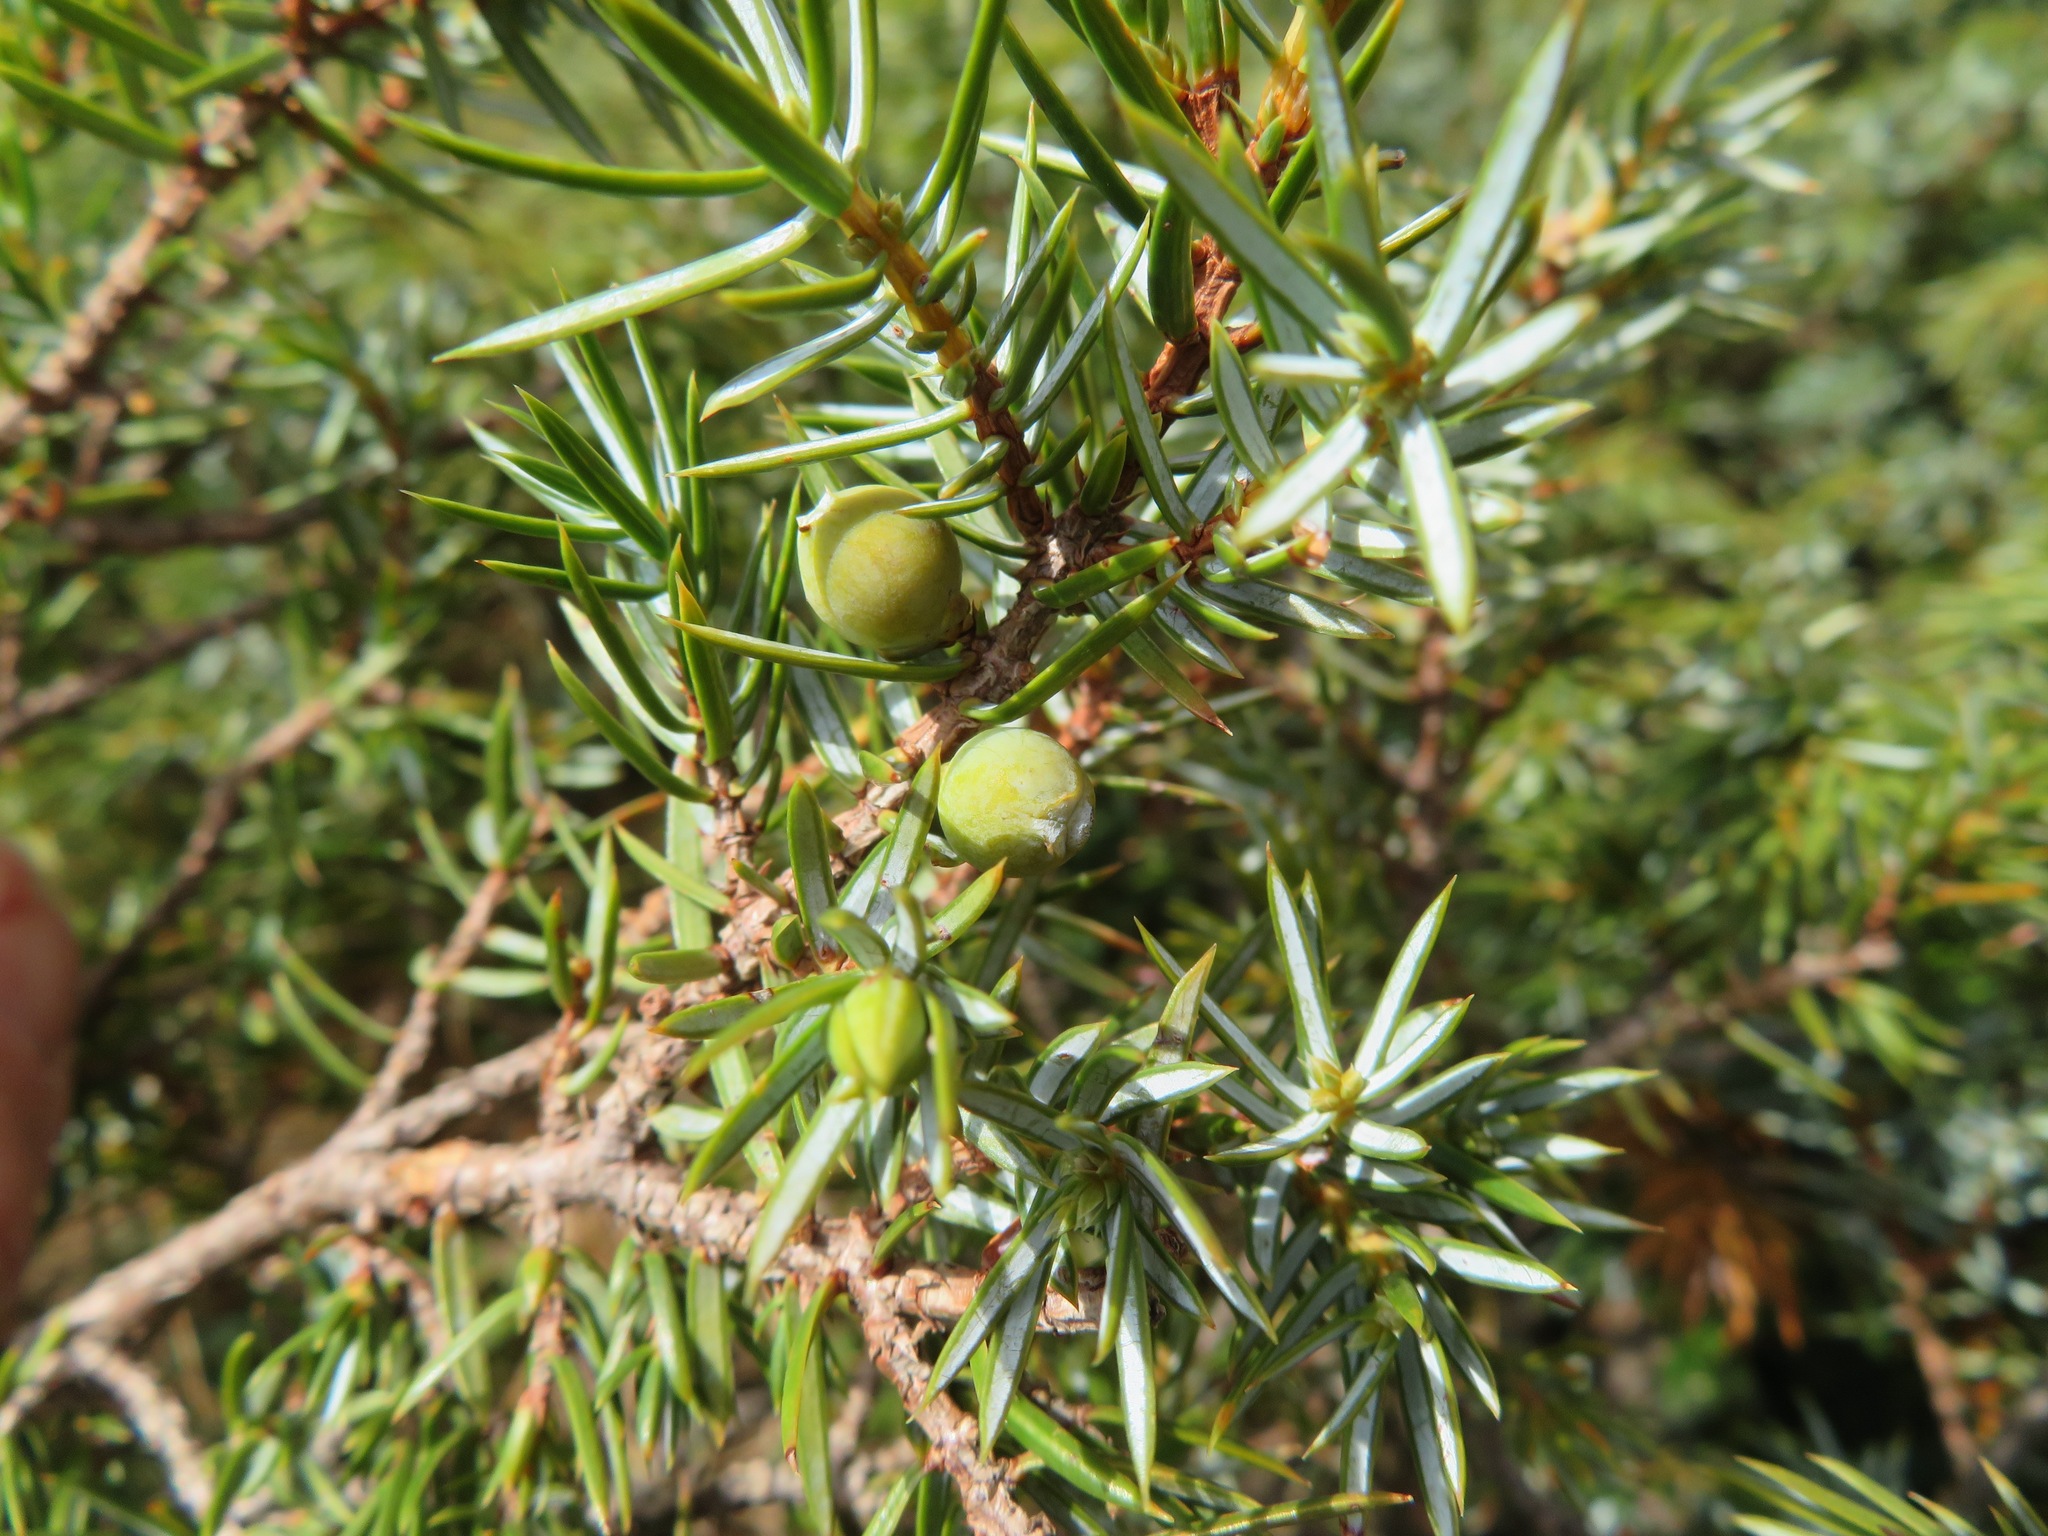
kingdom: Plantae
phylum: Tracheophyta
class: Pinopsida
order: Pinales
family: Cupressaceae
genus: Juniperus
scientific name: Juniperus communis
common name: Common juniper
